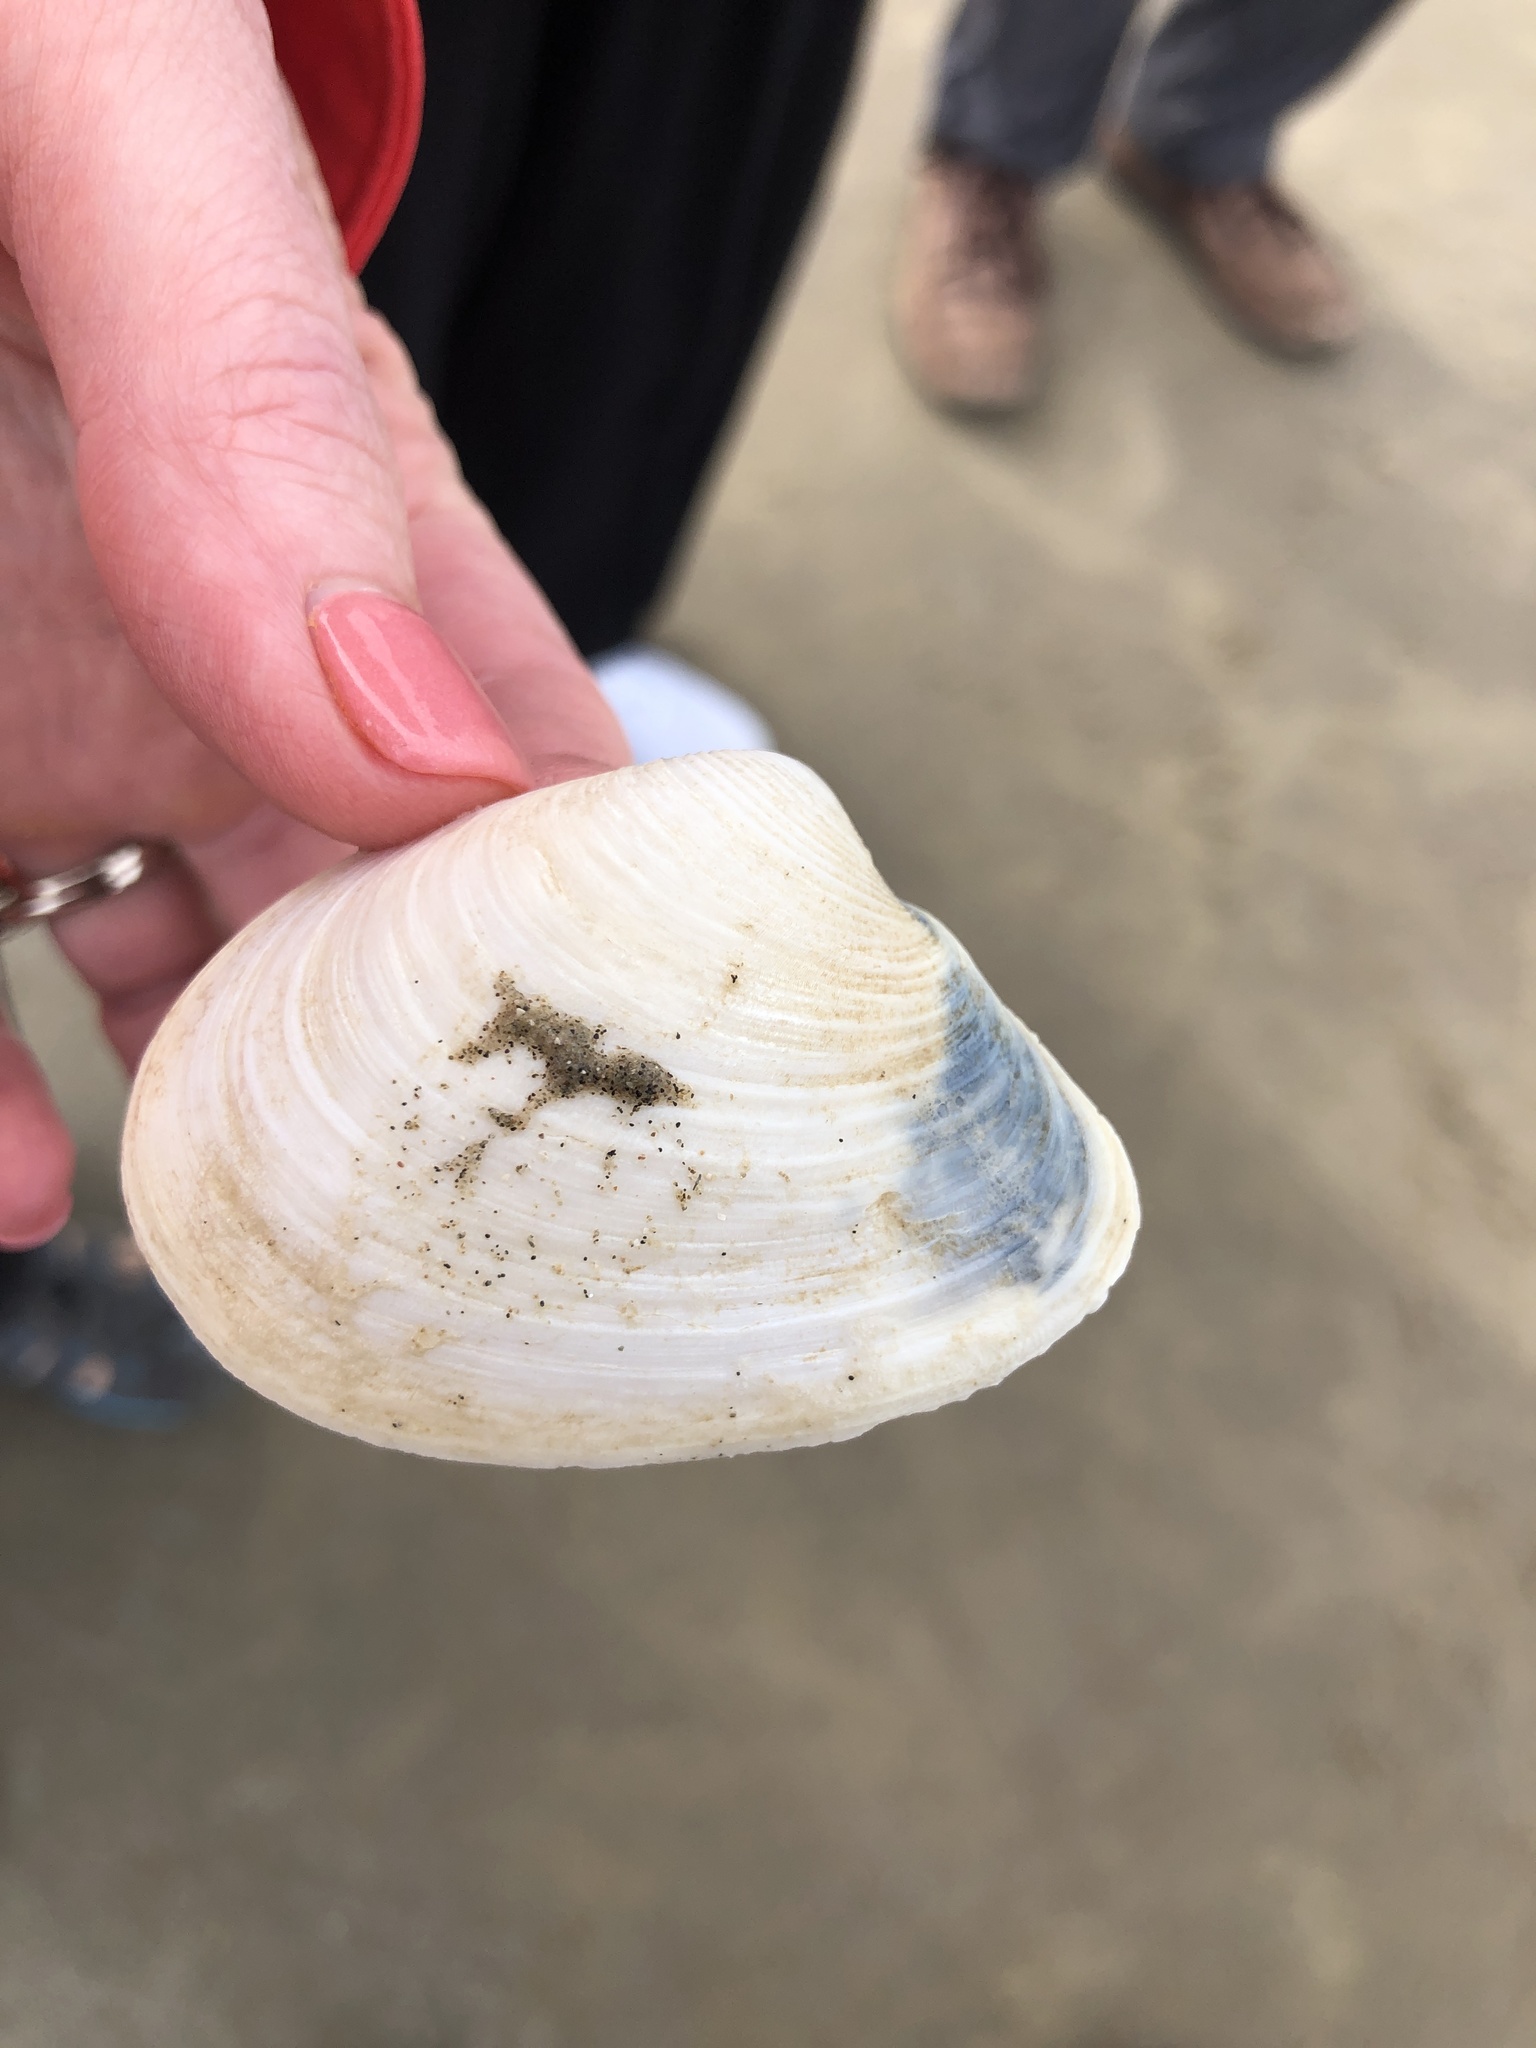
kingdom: Animalia
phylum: Mollusca
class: Bivalvia
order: Venerida
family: Anatinellidae
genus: Raeta
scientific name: Raeta plicatella
